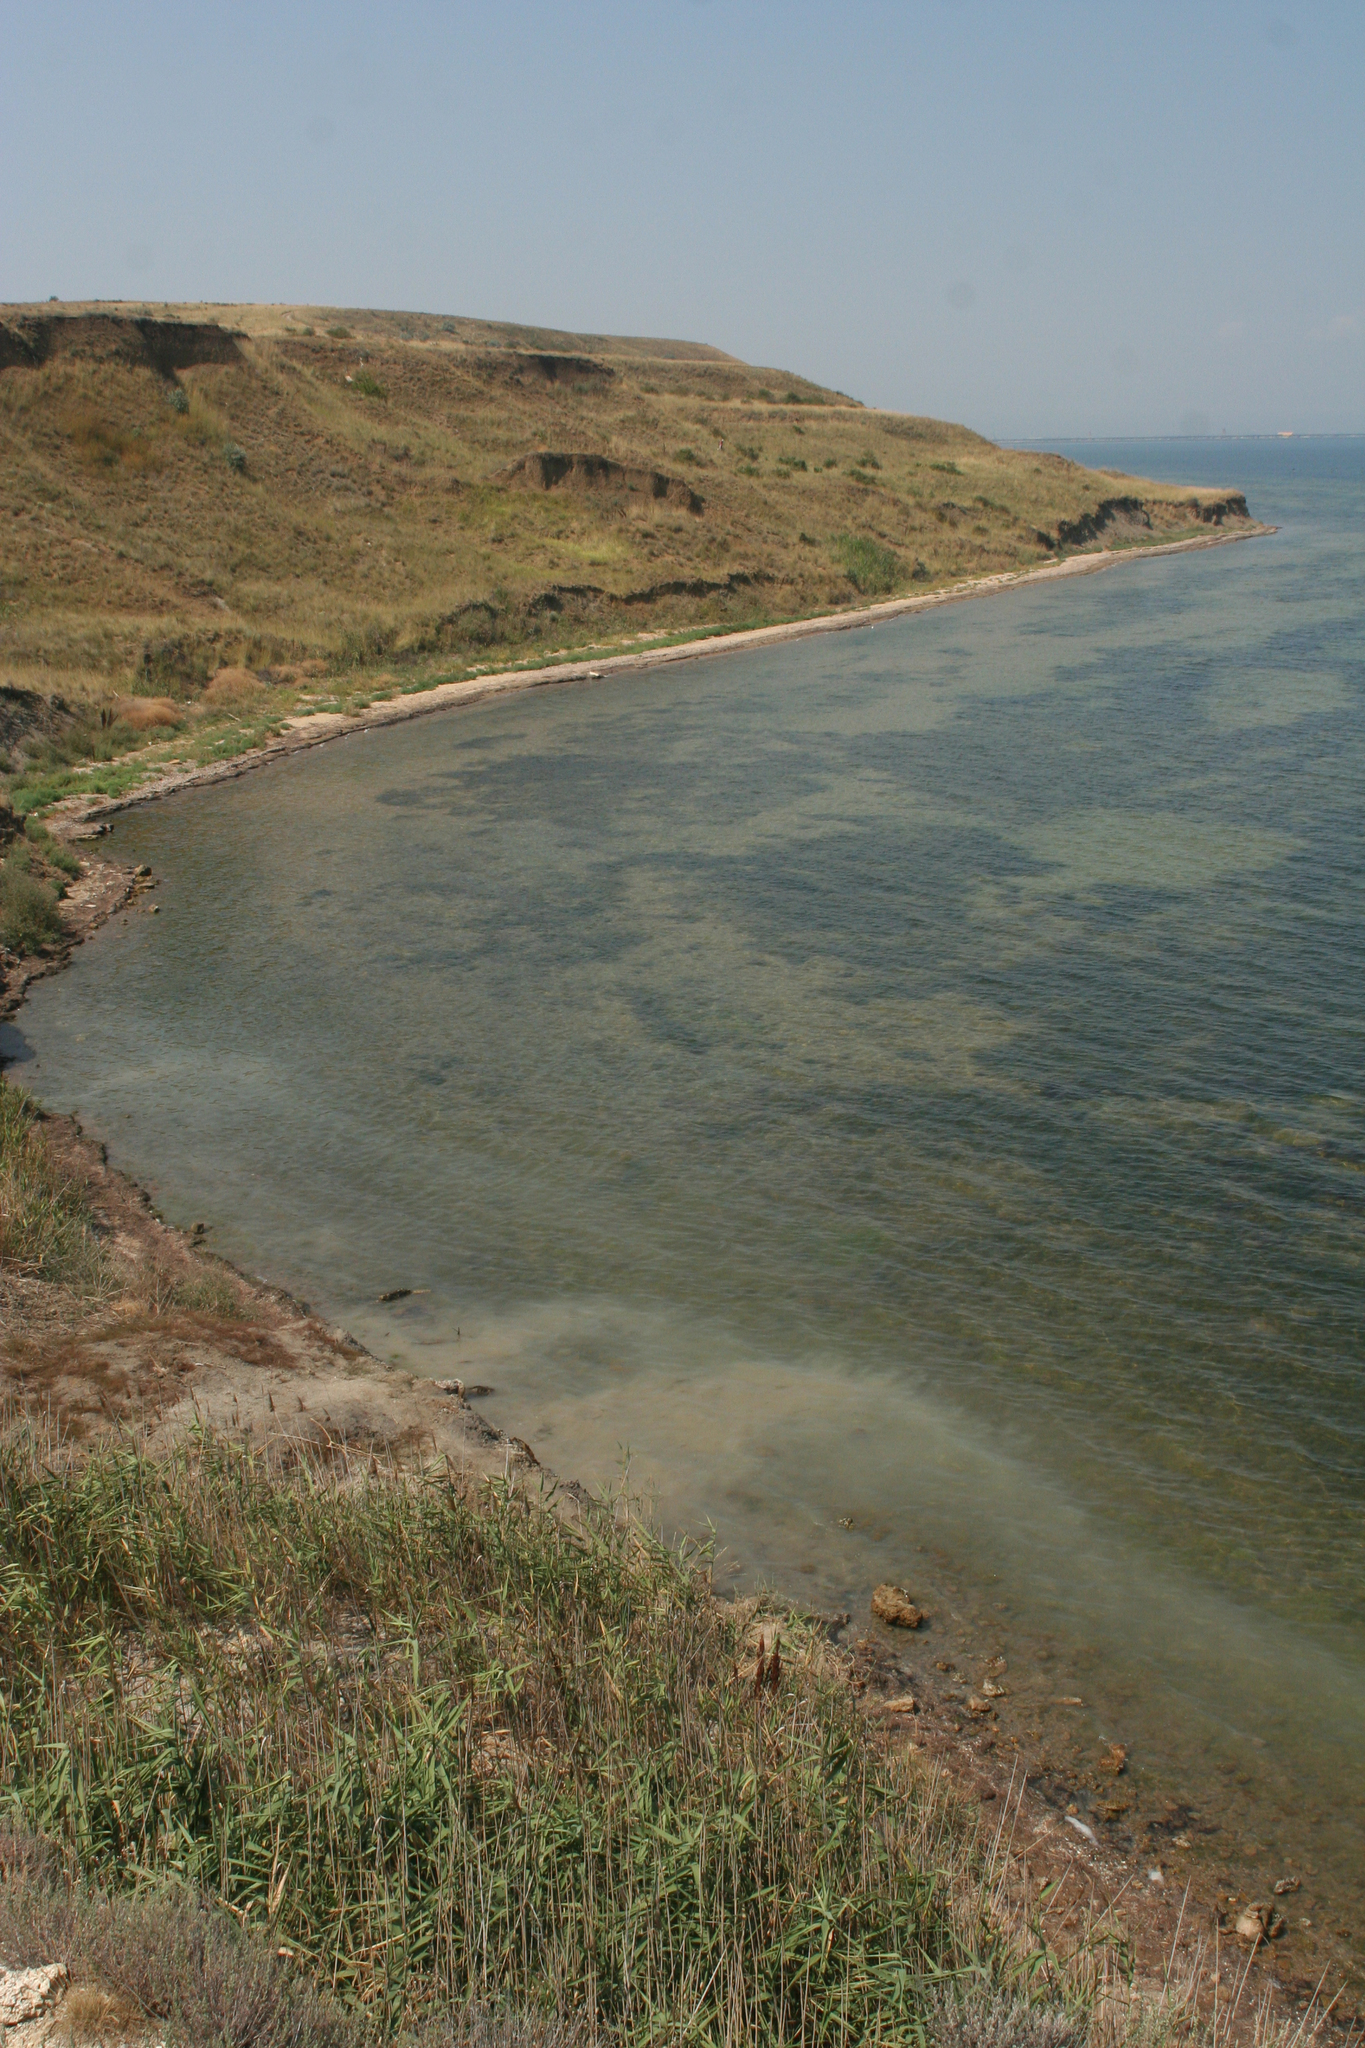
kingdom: Plantae
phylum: Tracheophyta
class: Liliopsida
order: Poales
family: Poaceae
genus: Phragmites
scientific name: Phragmites australis
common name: Common reed
